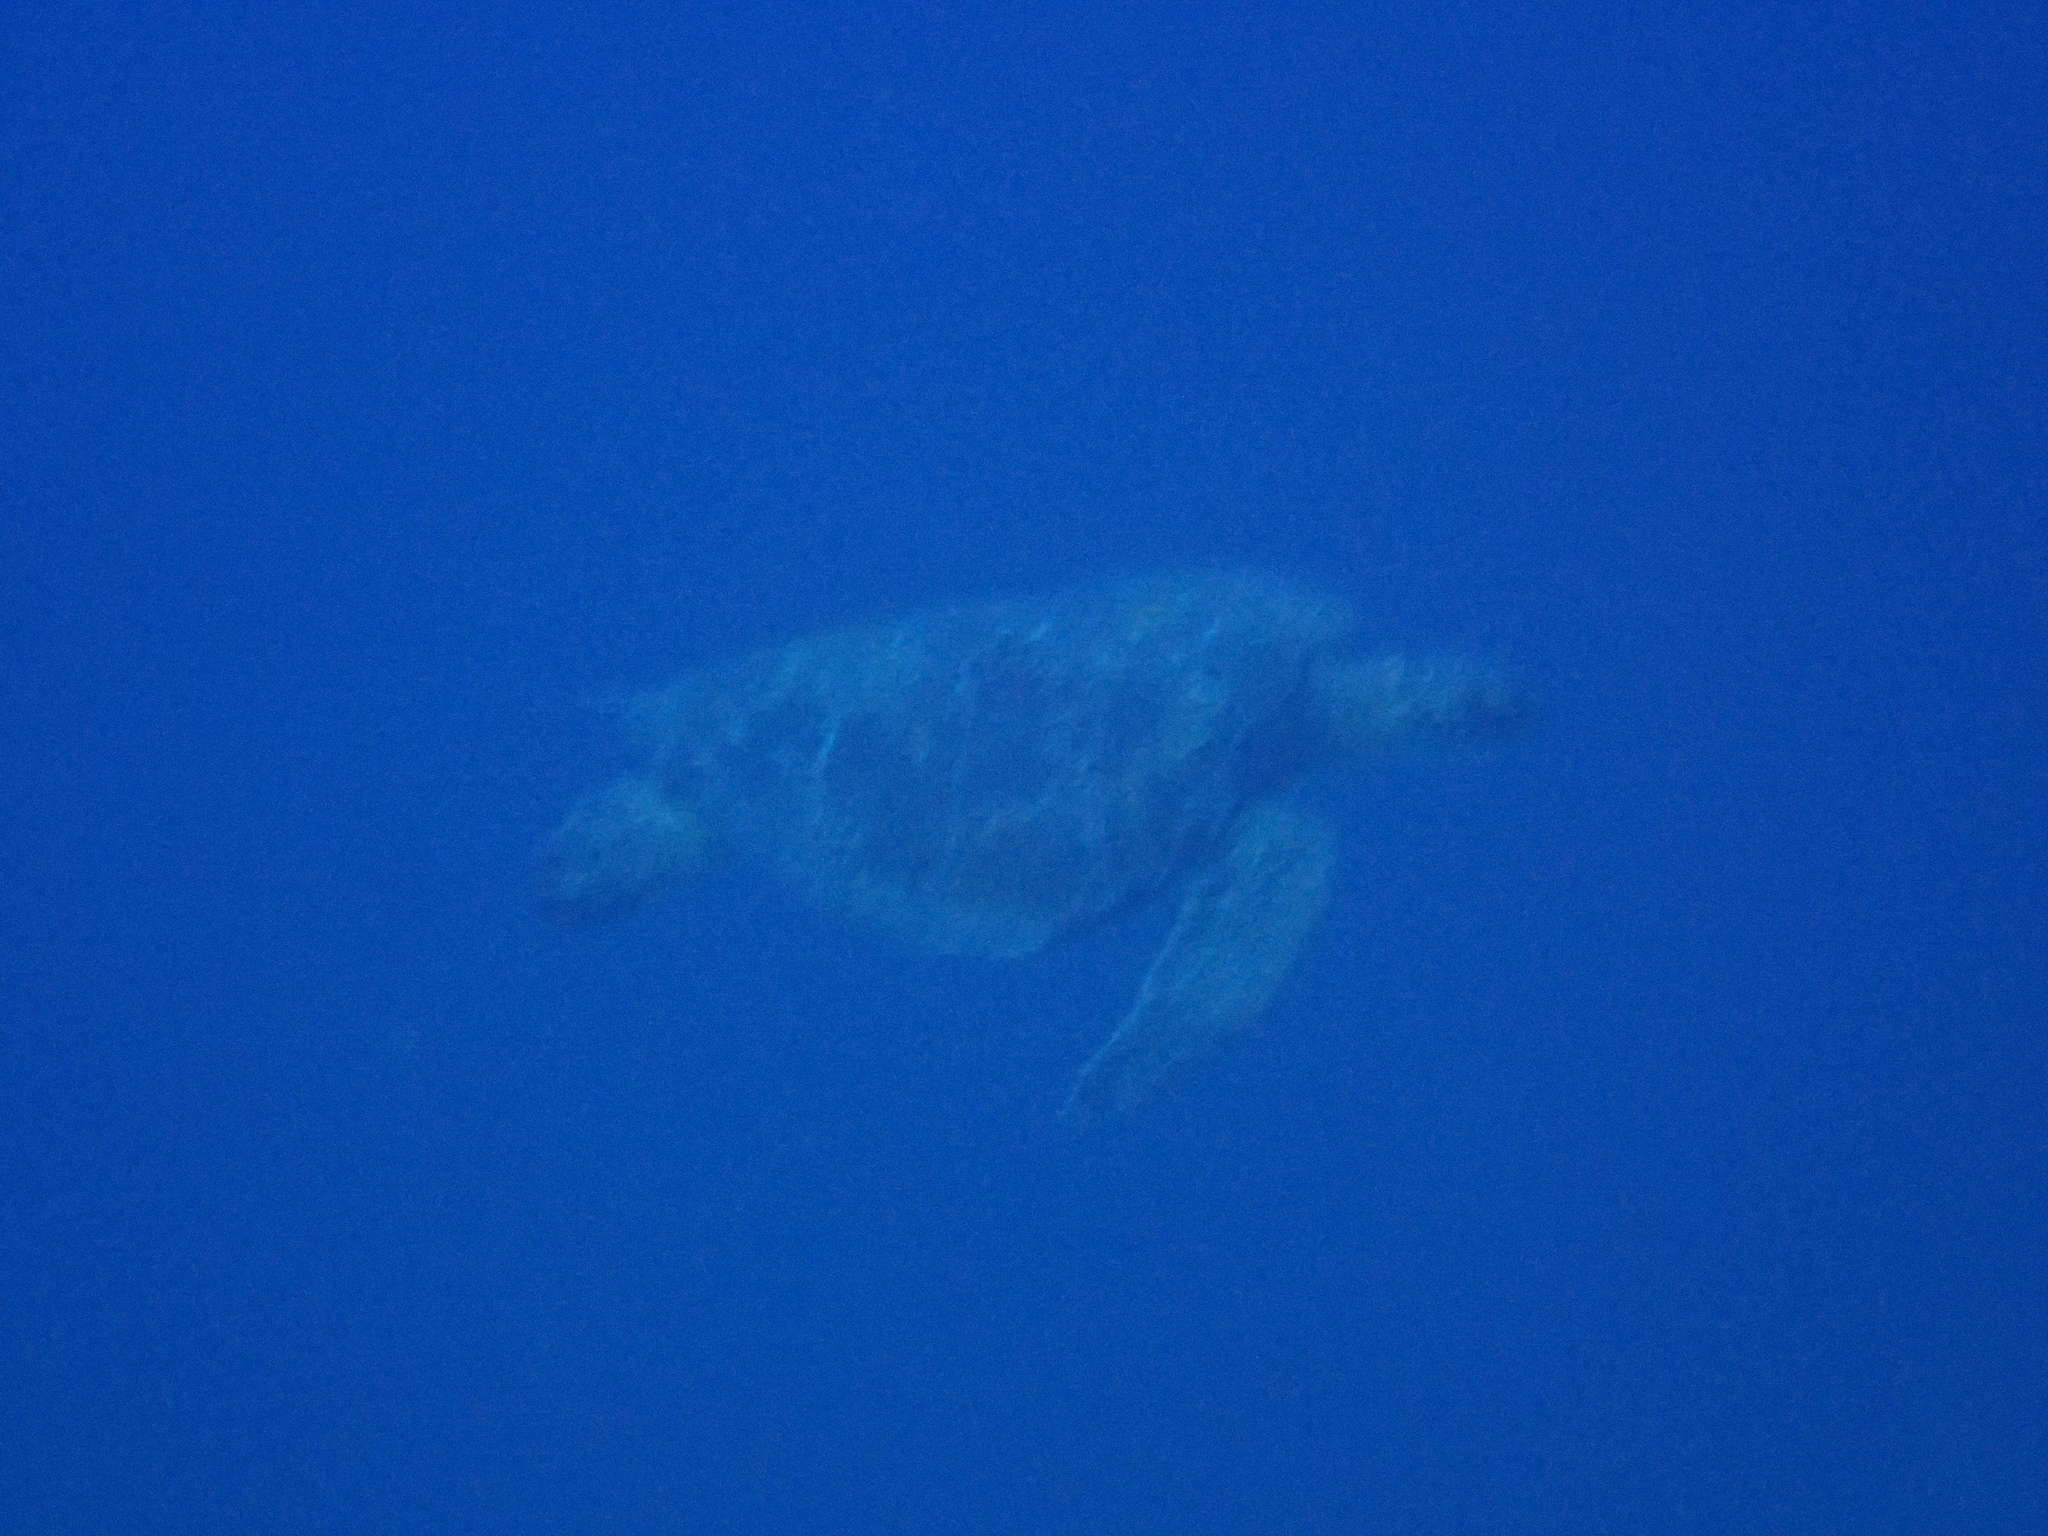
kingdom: Animalia
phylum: Chordata
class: Testudines
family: Cheloniidae
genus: Chelonia
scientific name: Chelonia mydas
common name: Green turtle
